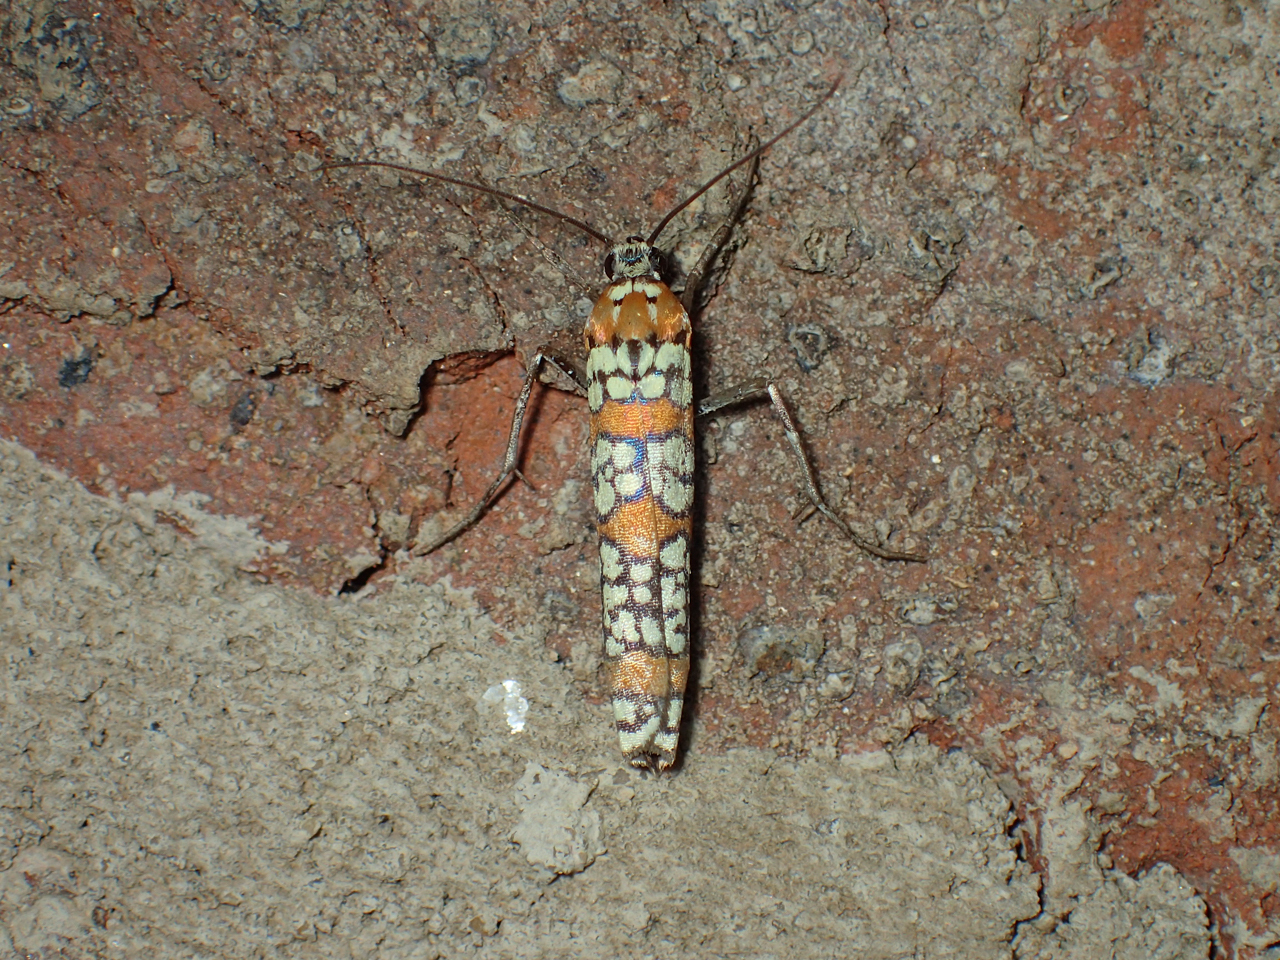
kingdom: Animalia
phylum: Arthropoda
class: Insecta
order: Lepidoptera
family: Attevidae
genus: Atteva
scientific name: Atteva punctella
